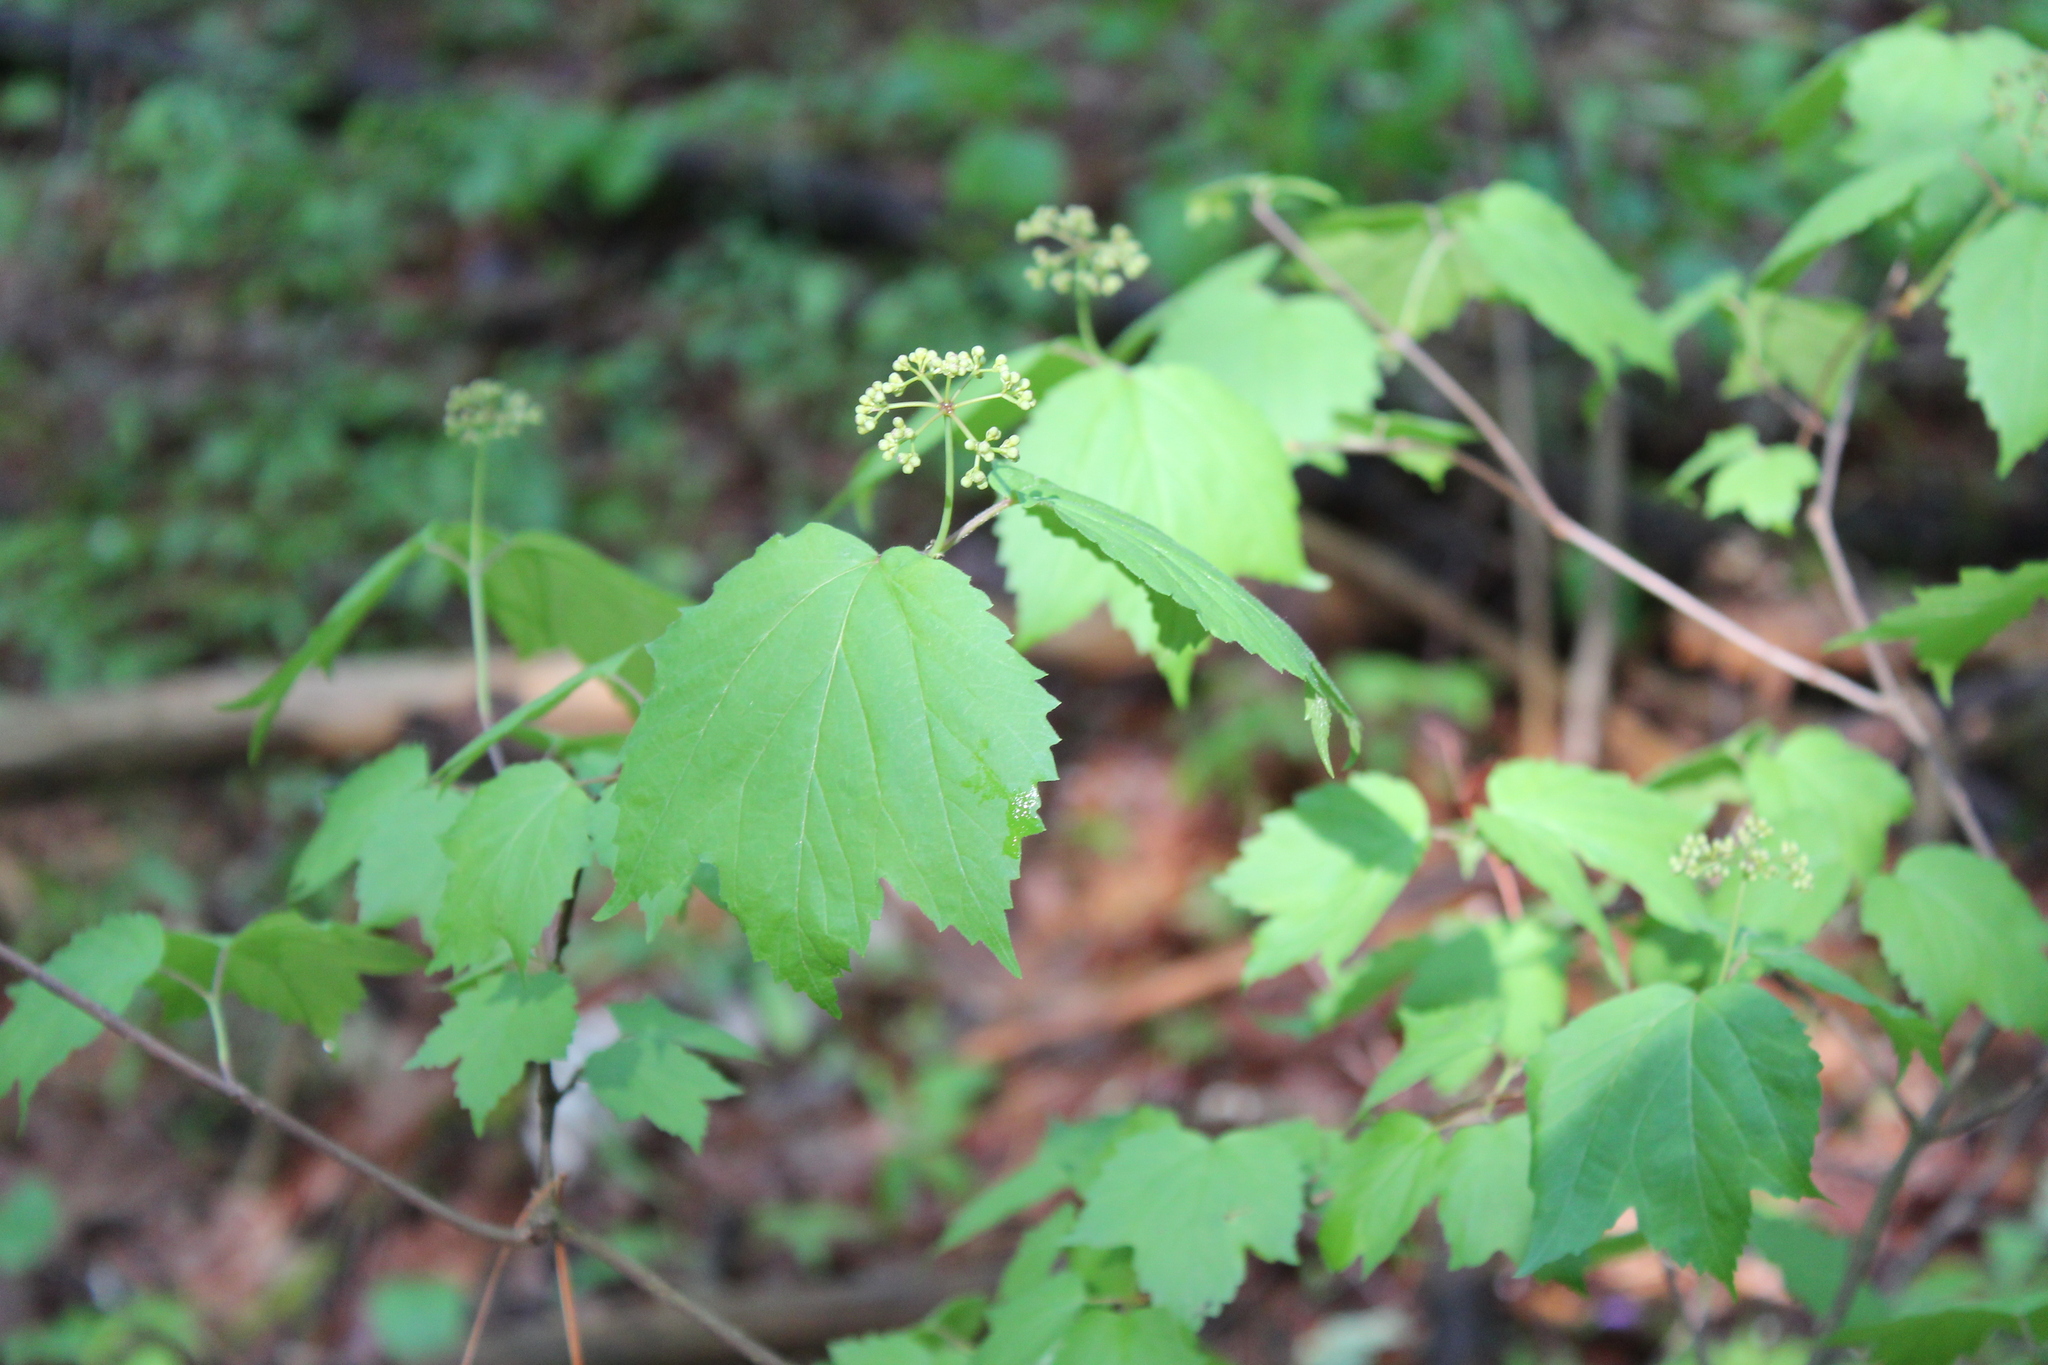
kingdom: Plantae
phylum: Tracheophyta
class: Magnoliopsida
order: Dipsacales
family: Viburnaceae
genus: Viburnum
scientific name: Viburnum acerifolium
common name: Dockmackie
